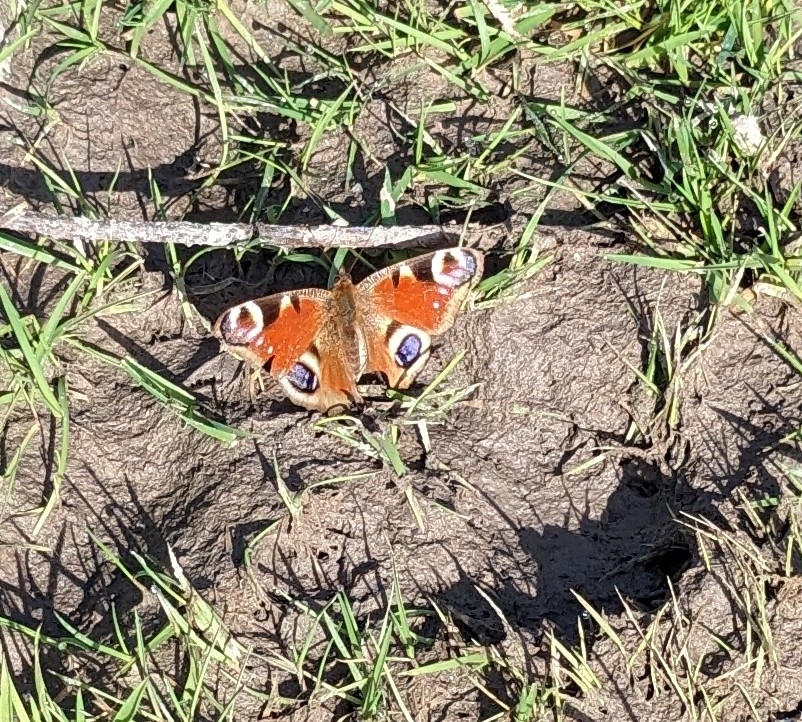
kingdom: Animalia
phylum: Arthropoda
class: Insecta
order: Lepidoptera
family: Nymphalidae
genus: Aglais
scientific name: Aglais io
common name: Peacock
